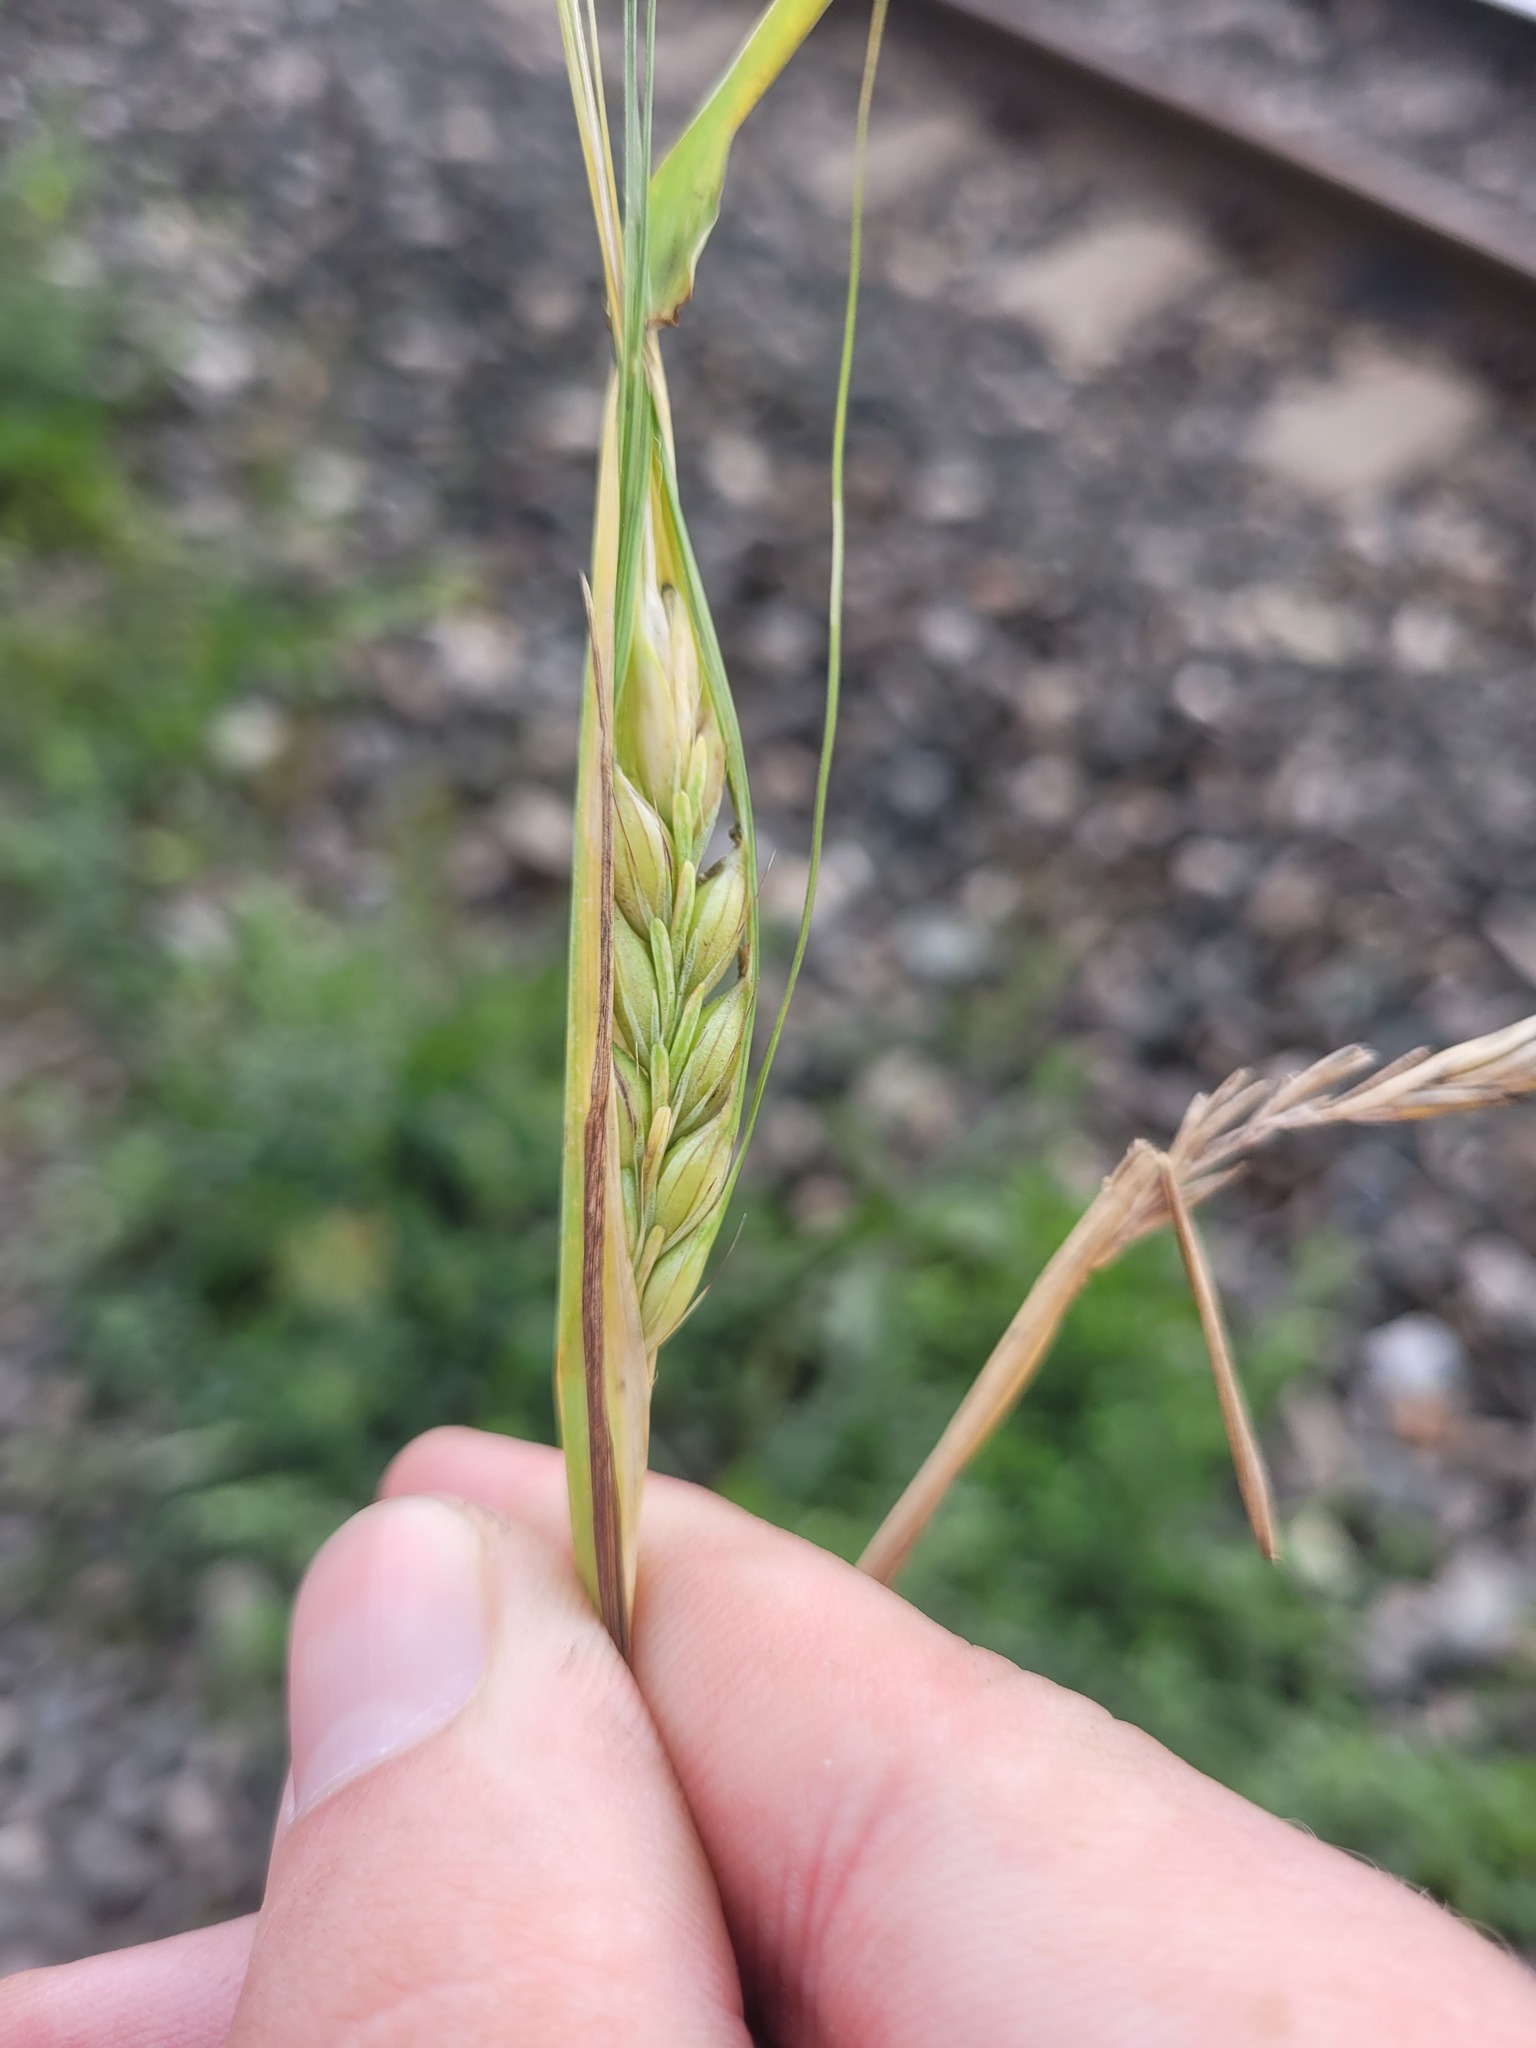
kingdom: Plantae
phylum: Tracheophyta
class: Liliopsida
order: Poales
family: Poaceae
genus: Hordeum
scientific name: Hordeum vulgare
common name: Common barley
